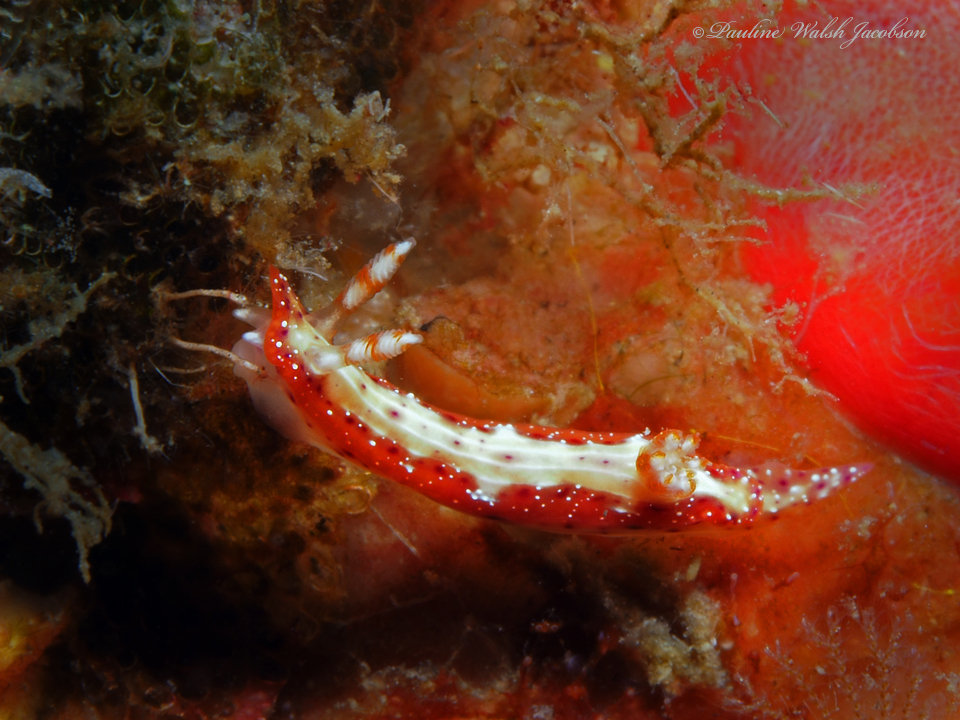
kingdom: Animalia
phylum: Mollusca
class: Gastropoda
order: Nudibranchia
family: Chromodorididae
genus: Hypselodoris
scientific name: Hypselodoris maculosa
